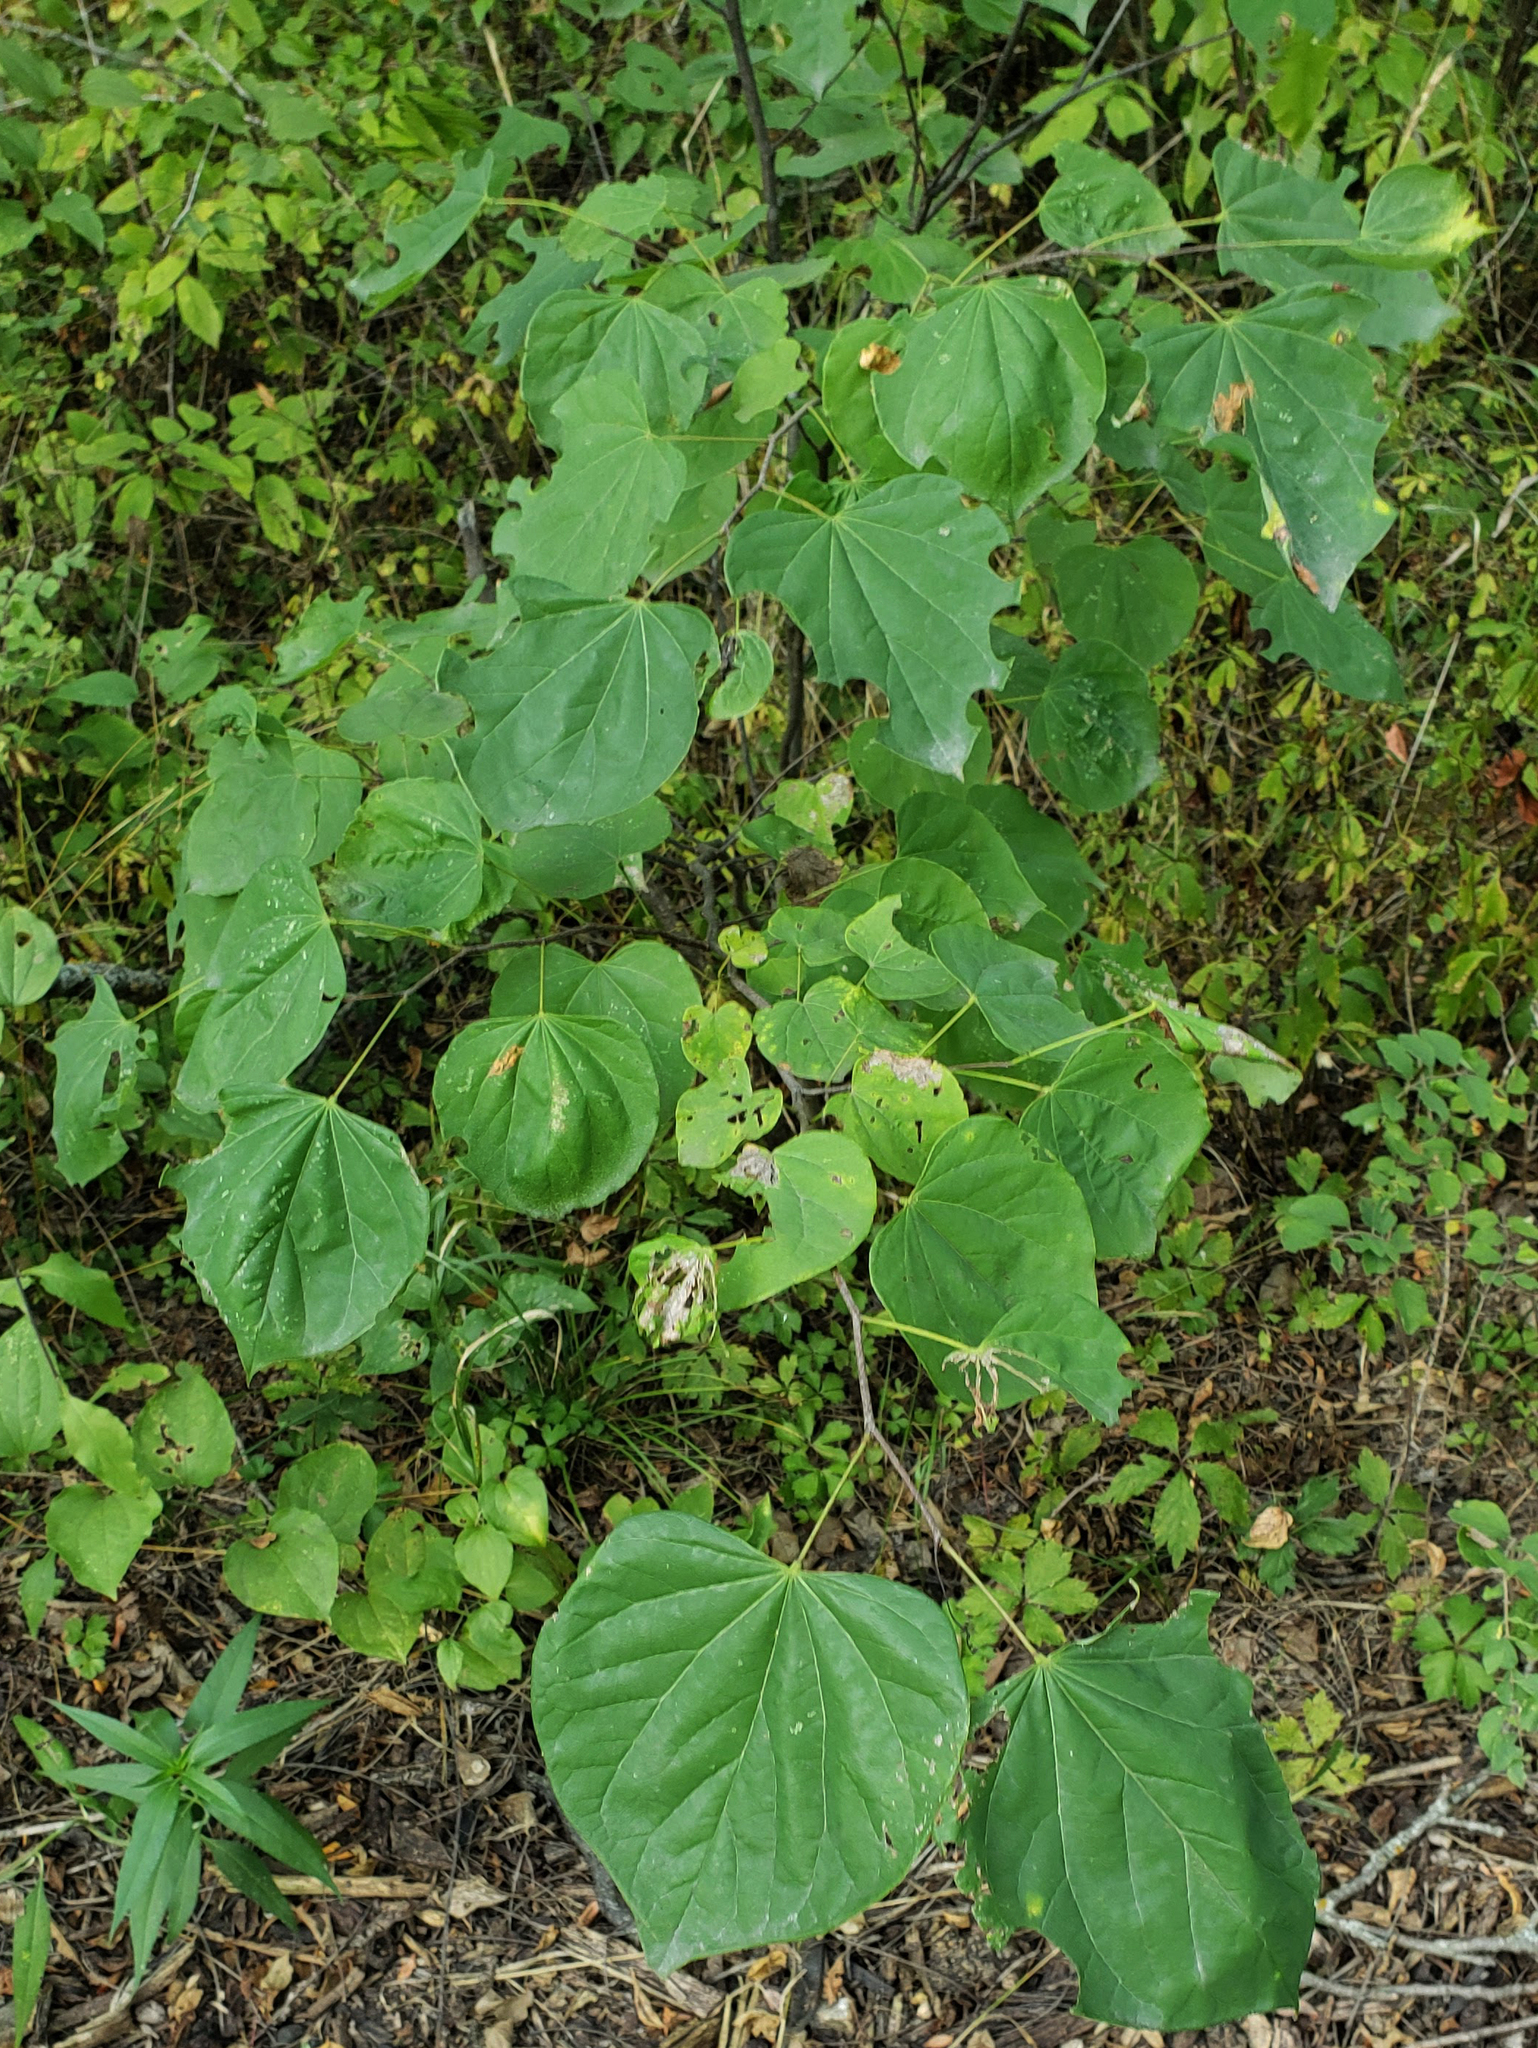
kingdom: Plantae
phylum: Tracheophyta
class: Magnoliopsida
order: Fabales
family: Fabaceae
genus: Cercis
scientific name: Cercis canadensis
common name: Eastern redbud
